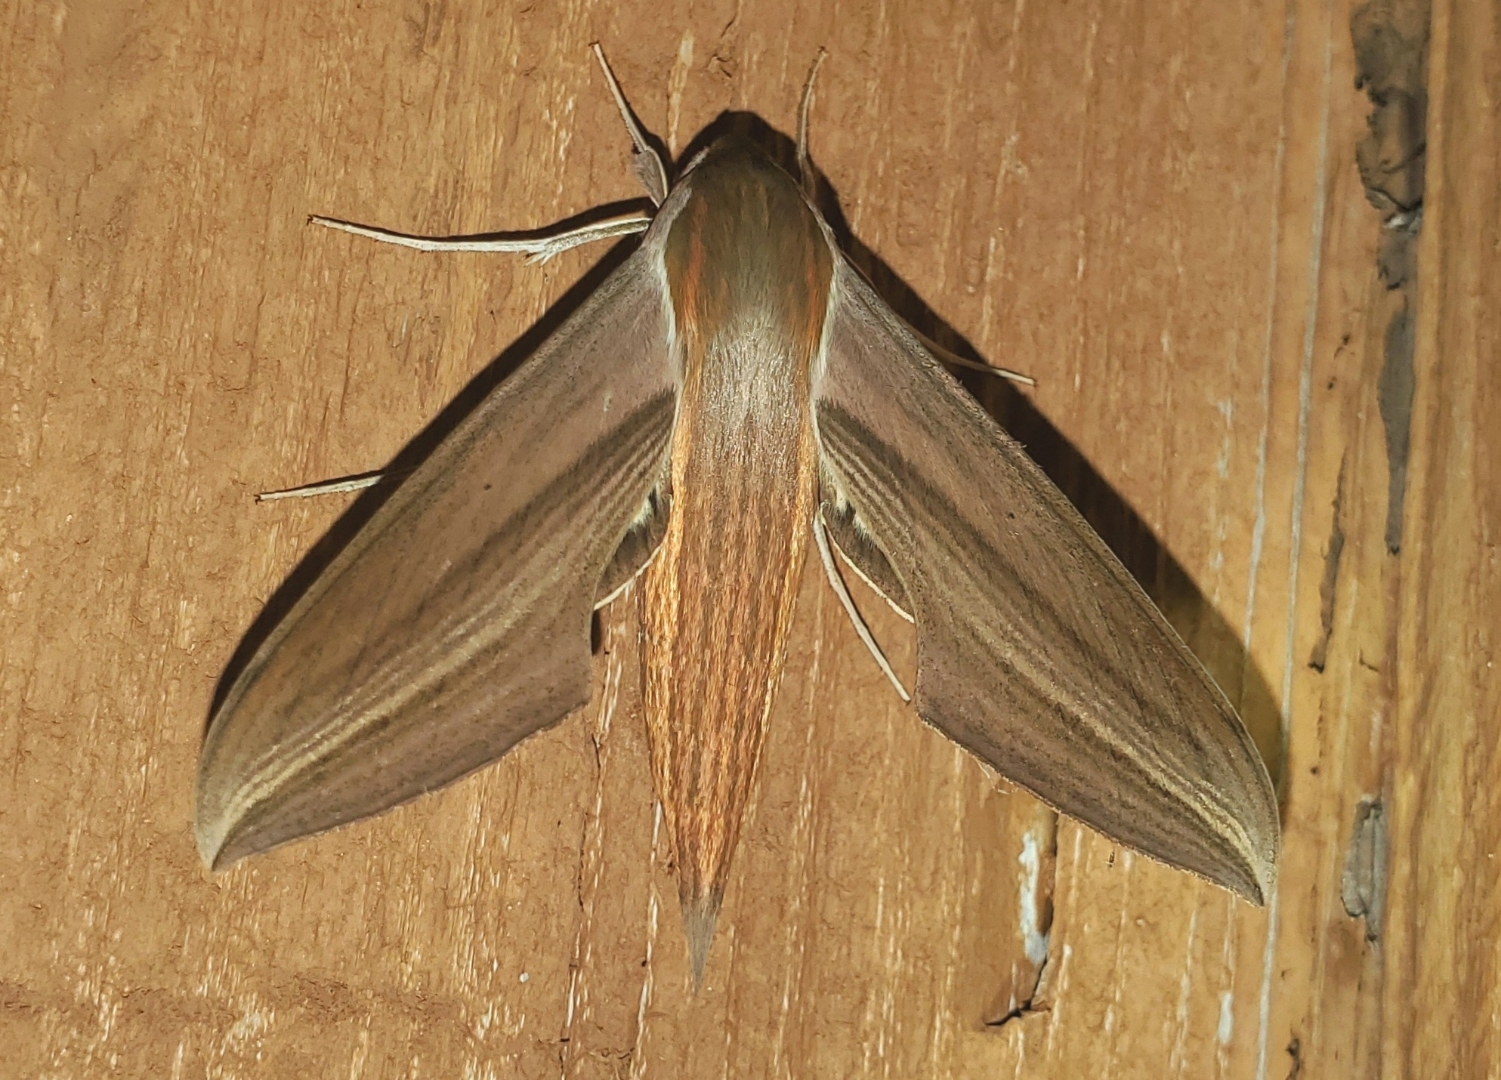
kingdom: Animalia
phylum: Arthropoda
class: Insecta
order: Lepidoptera
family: Sphingidae
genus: Xylophanes
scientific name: Xylophanes tersa
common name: Tersa sphinx
